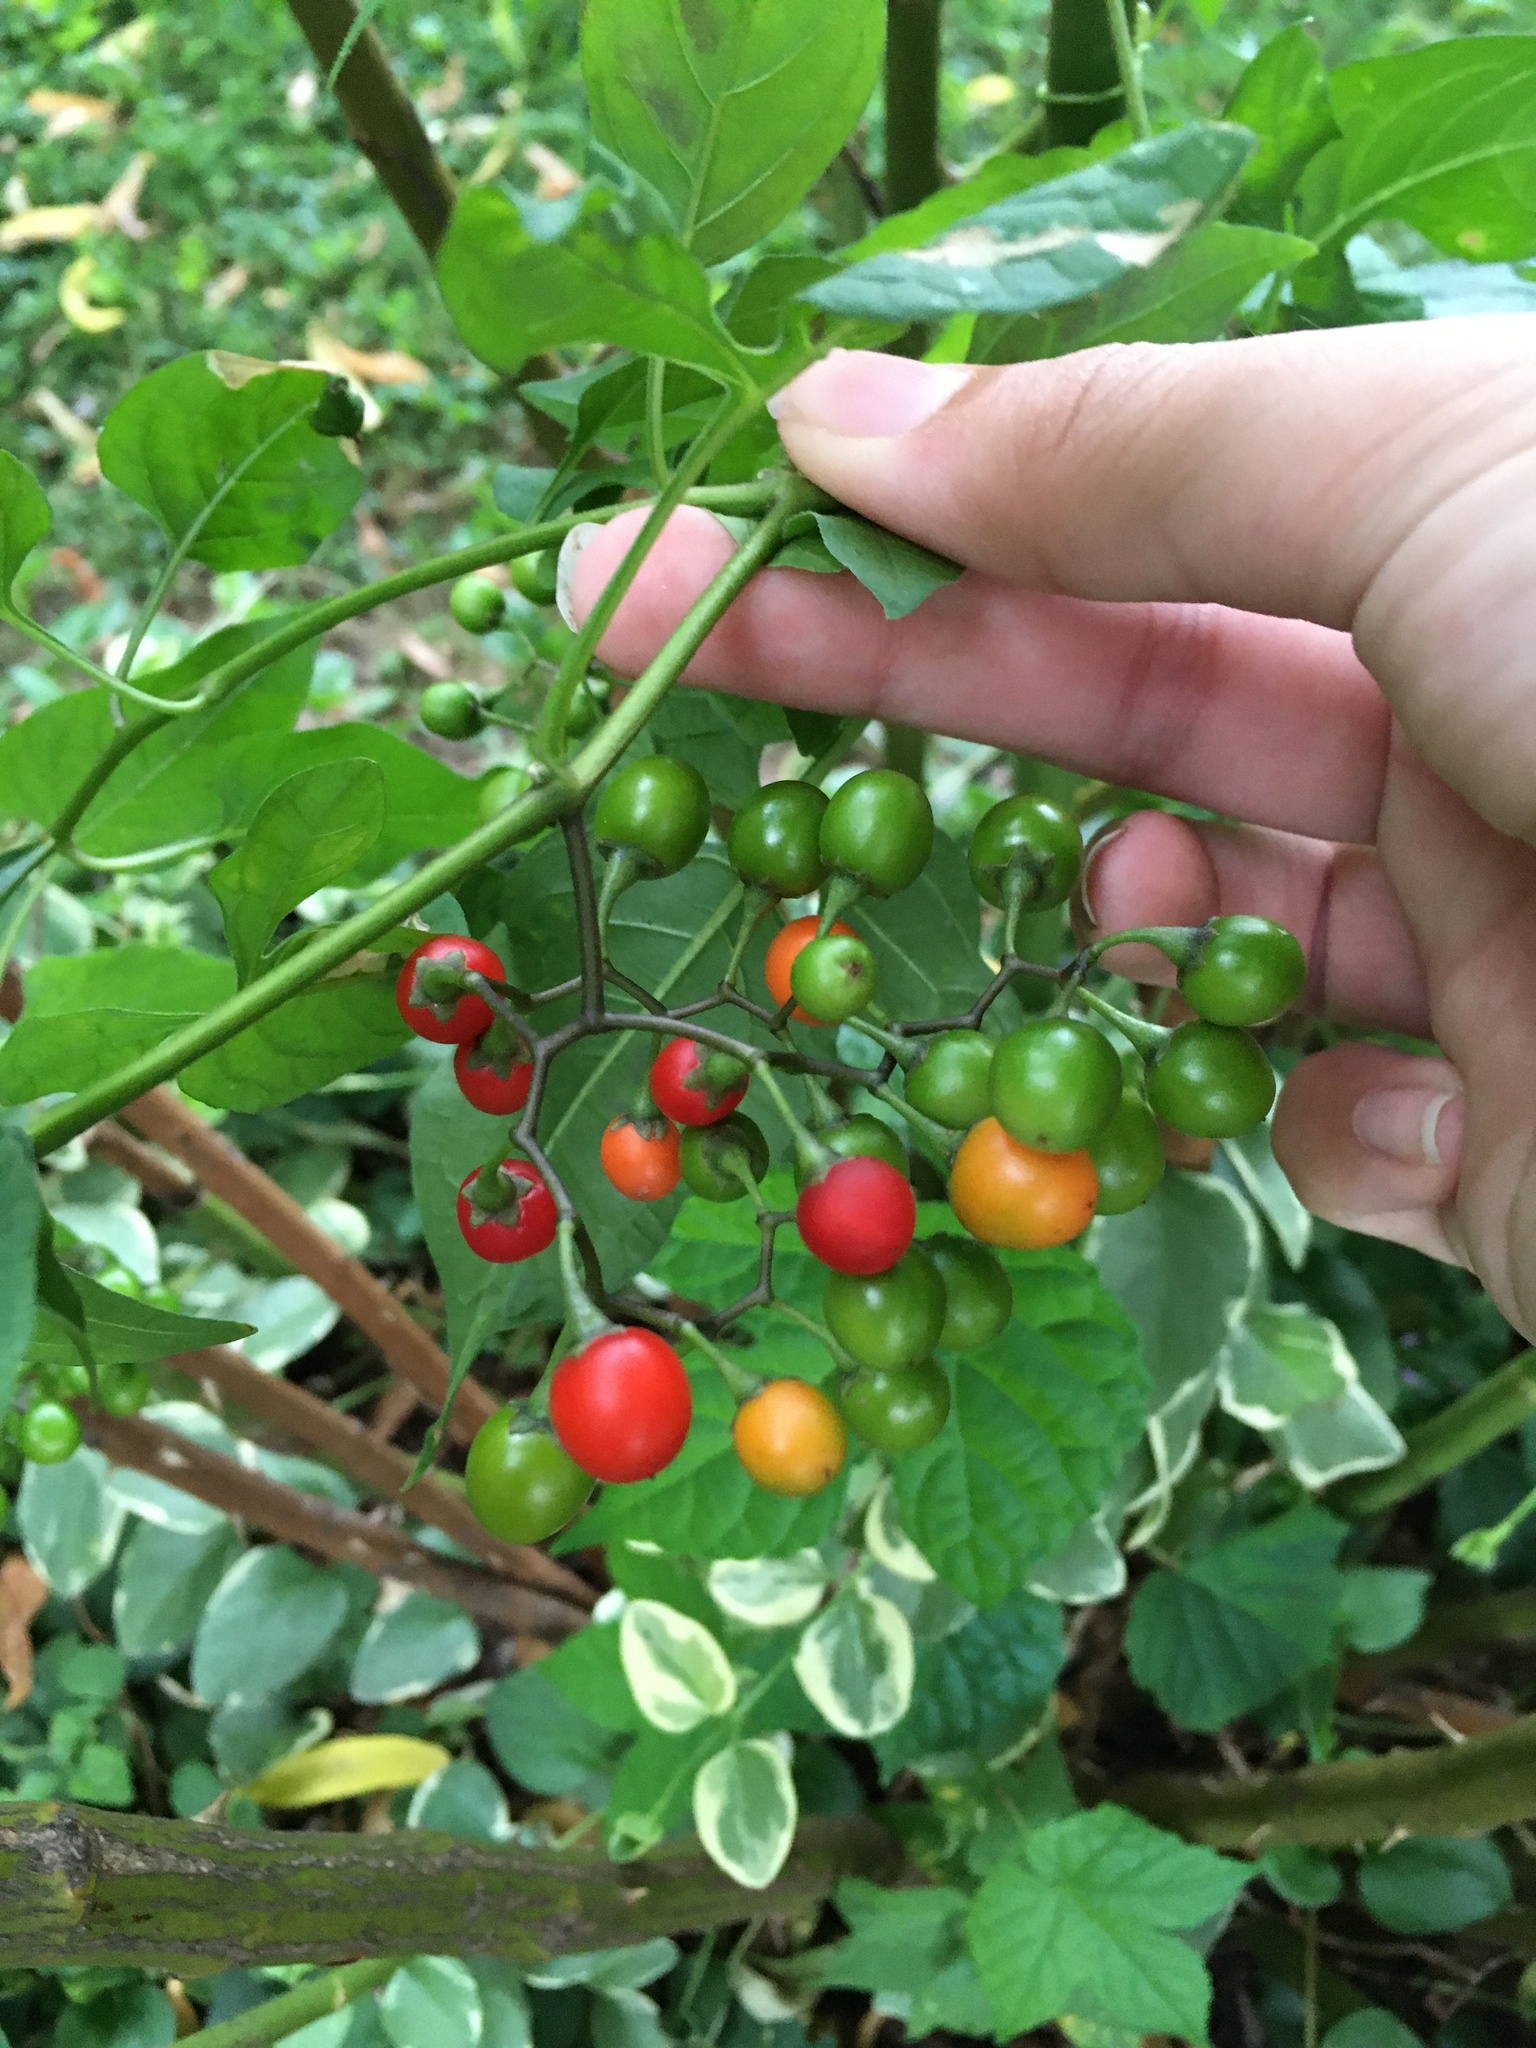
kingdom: Plantae
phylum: Tracheophyta
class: Magnoliopsida
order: Solanales
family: Solanaceae
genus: Solanum
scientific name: Solanum dulcamara
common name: Climbing nightshade
